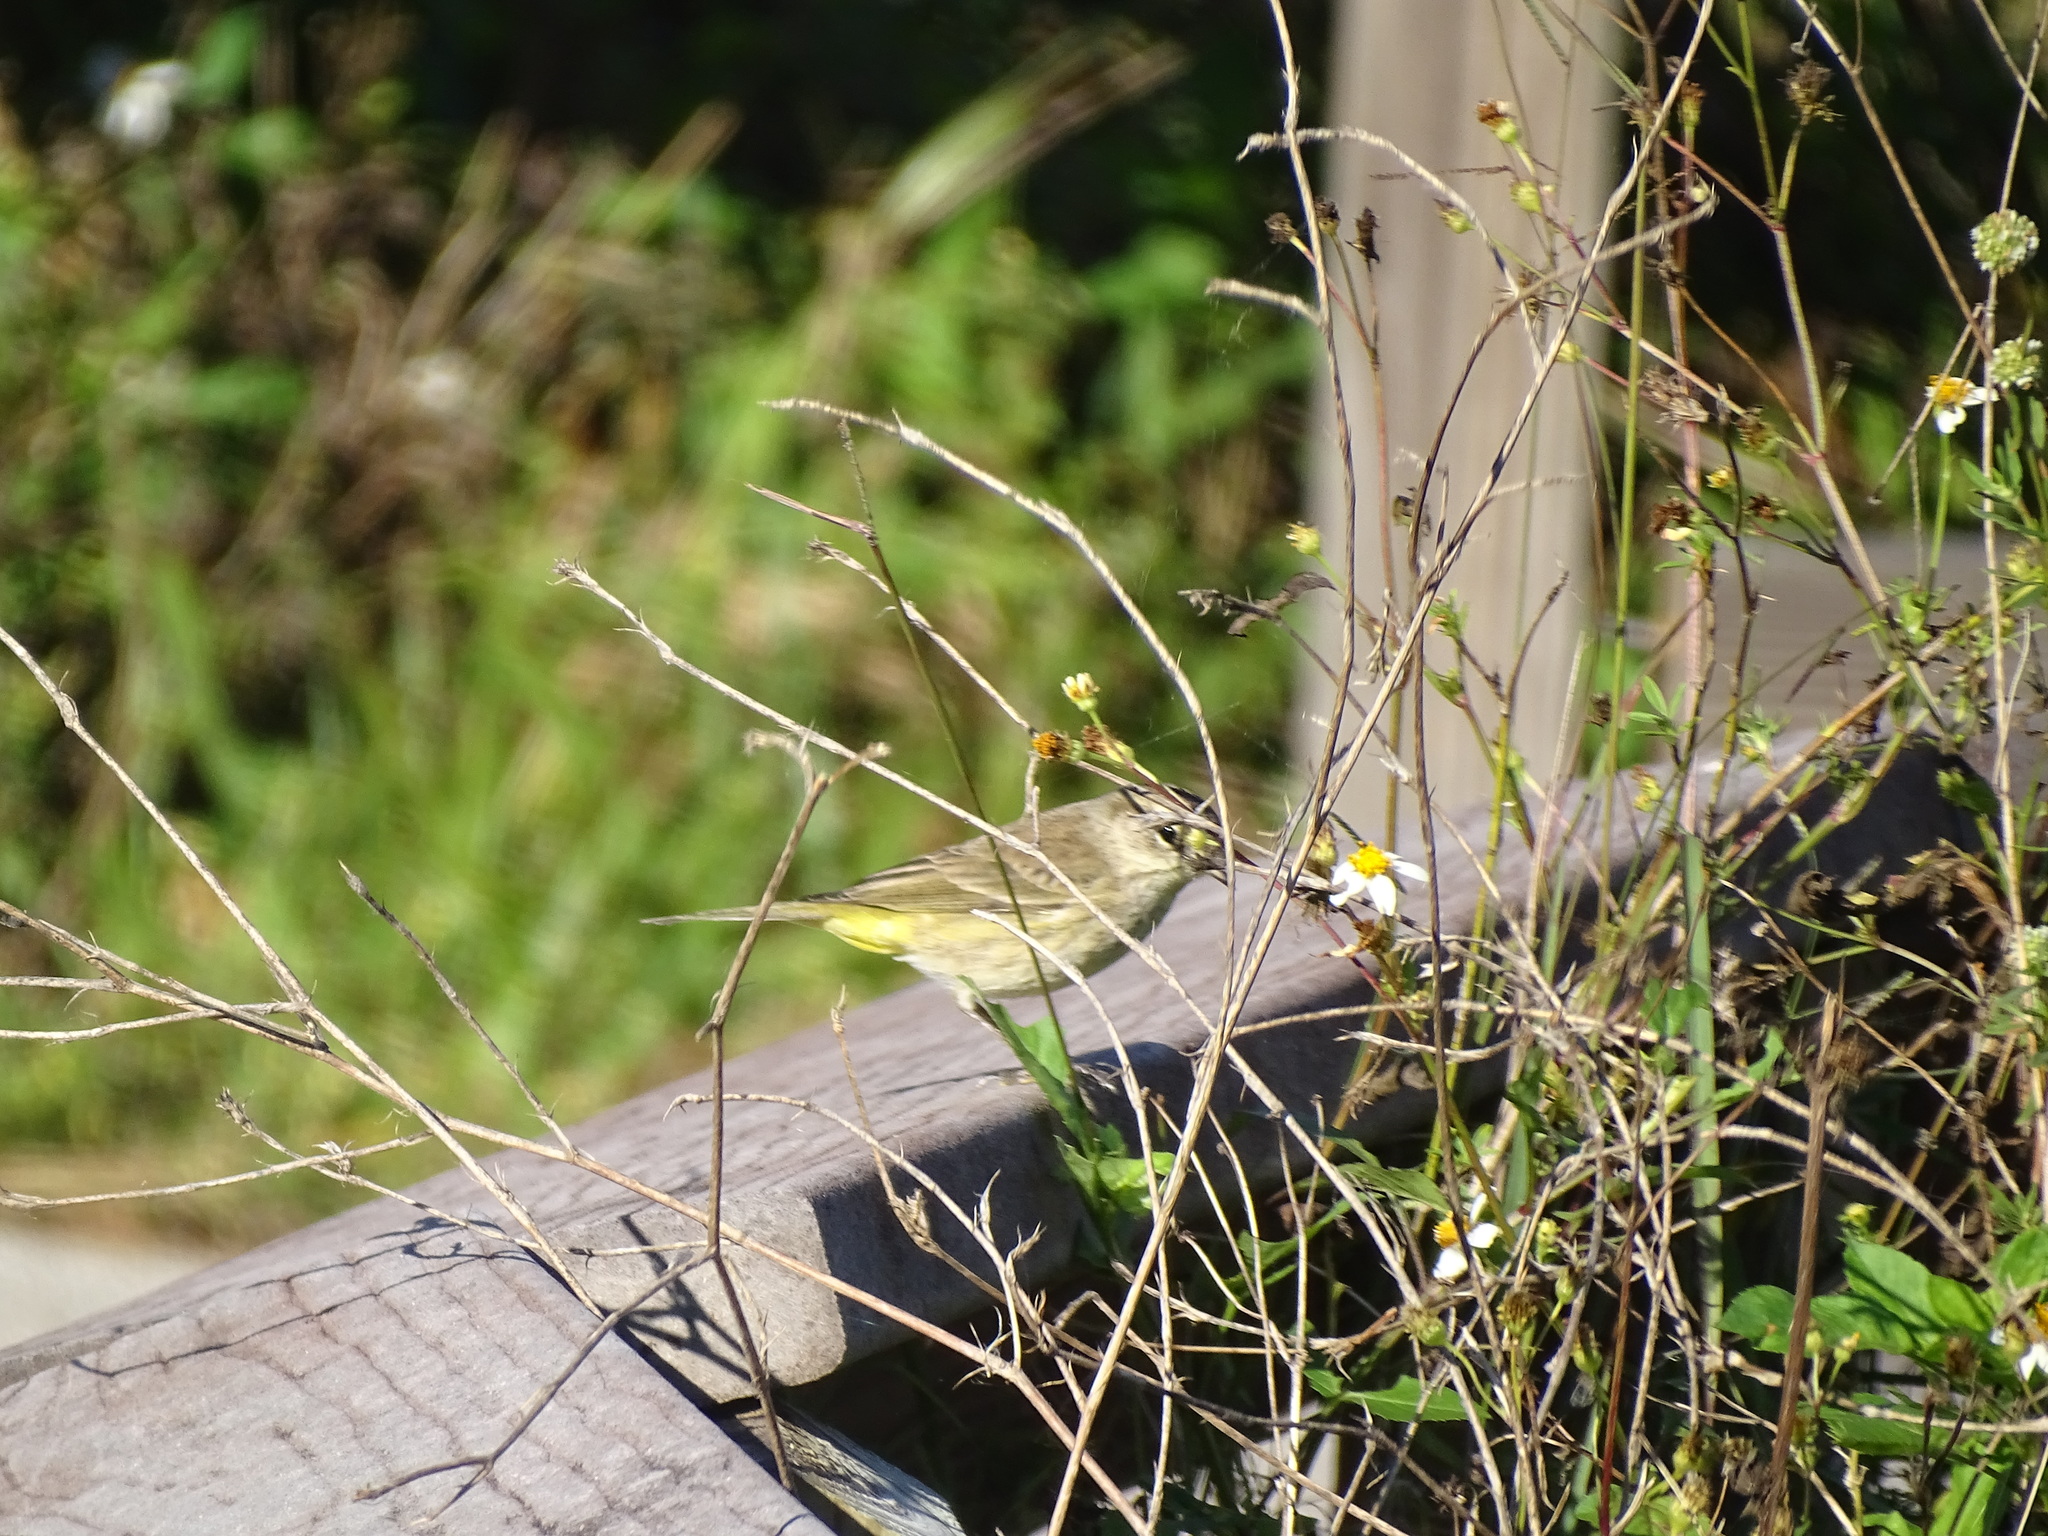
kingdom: Animalia
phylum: Chordata
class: Aves
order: Passeriformes
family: Parulidae
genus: Setophaga
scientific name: Setophaga palmarum
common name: Palm warbler
